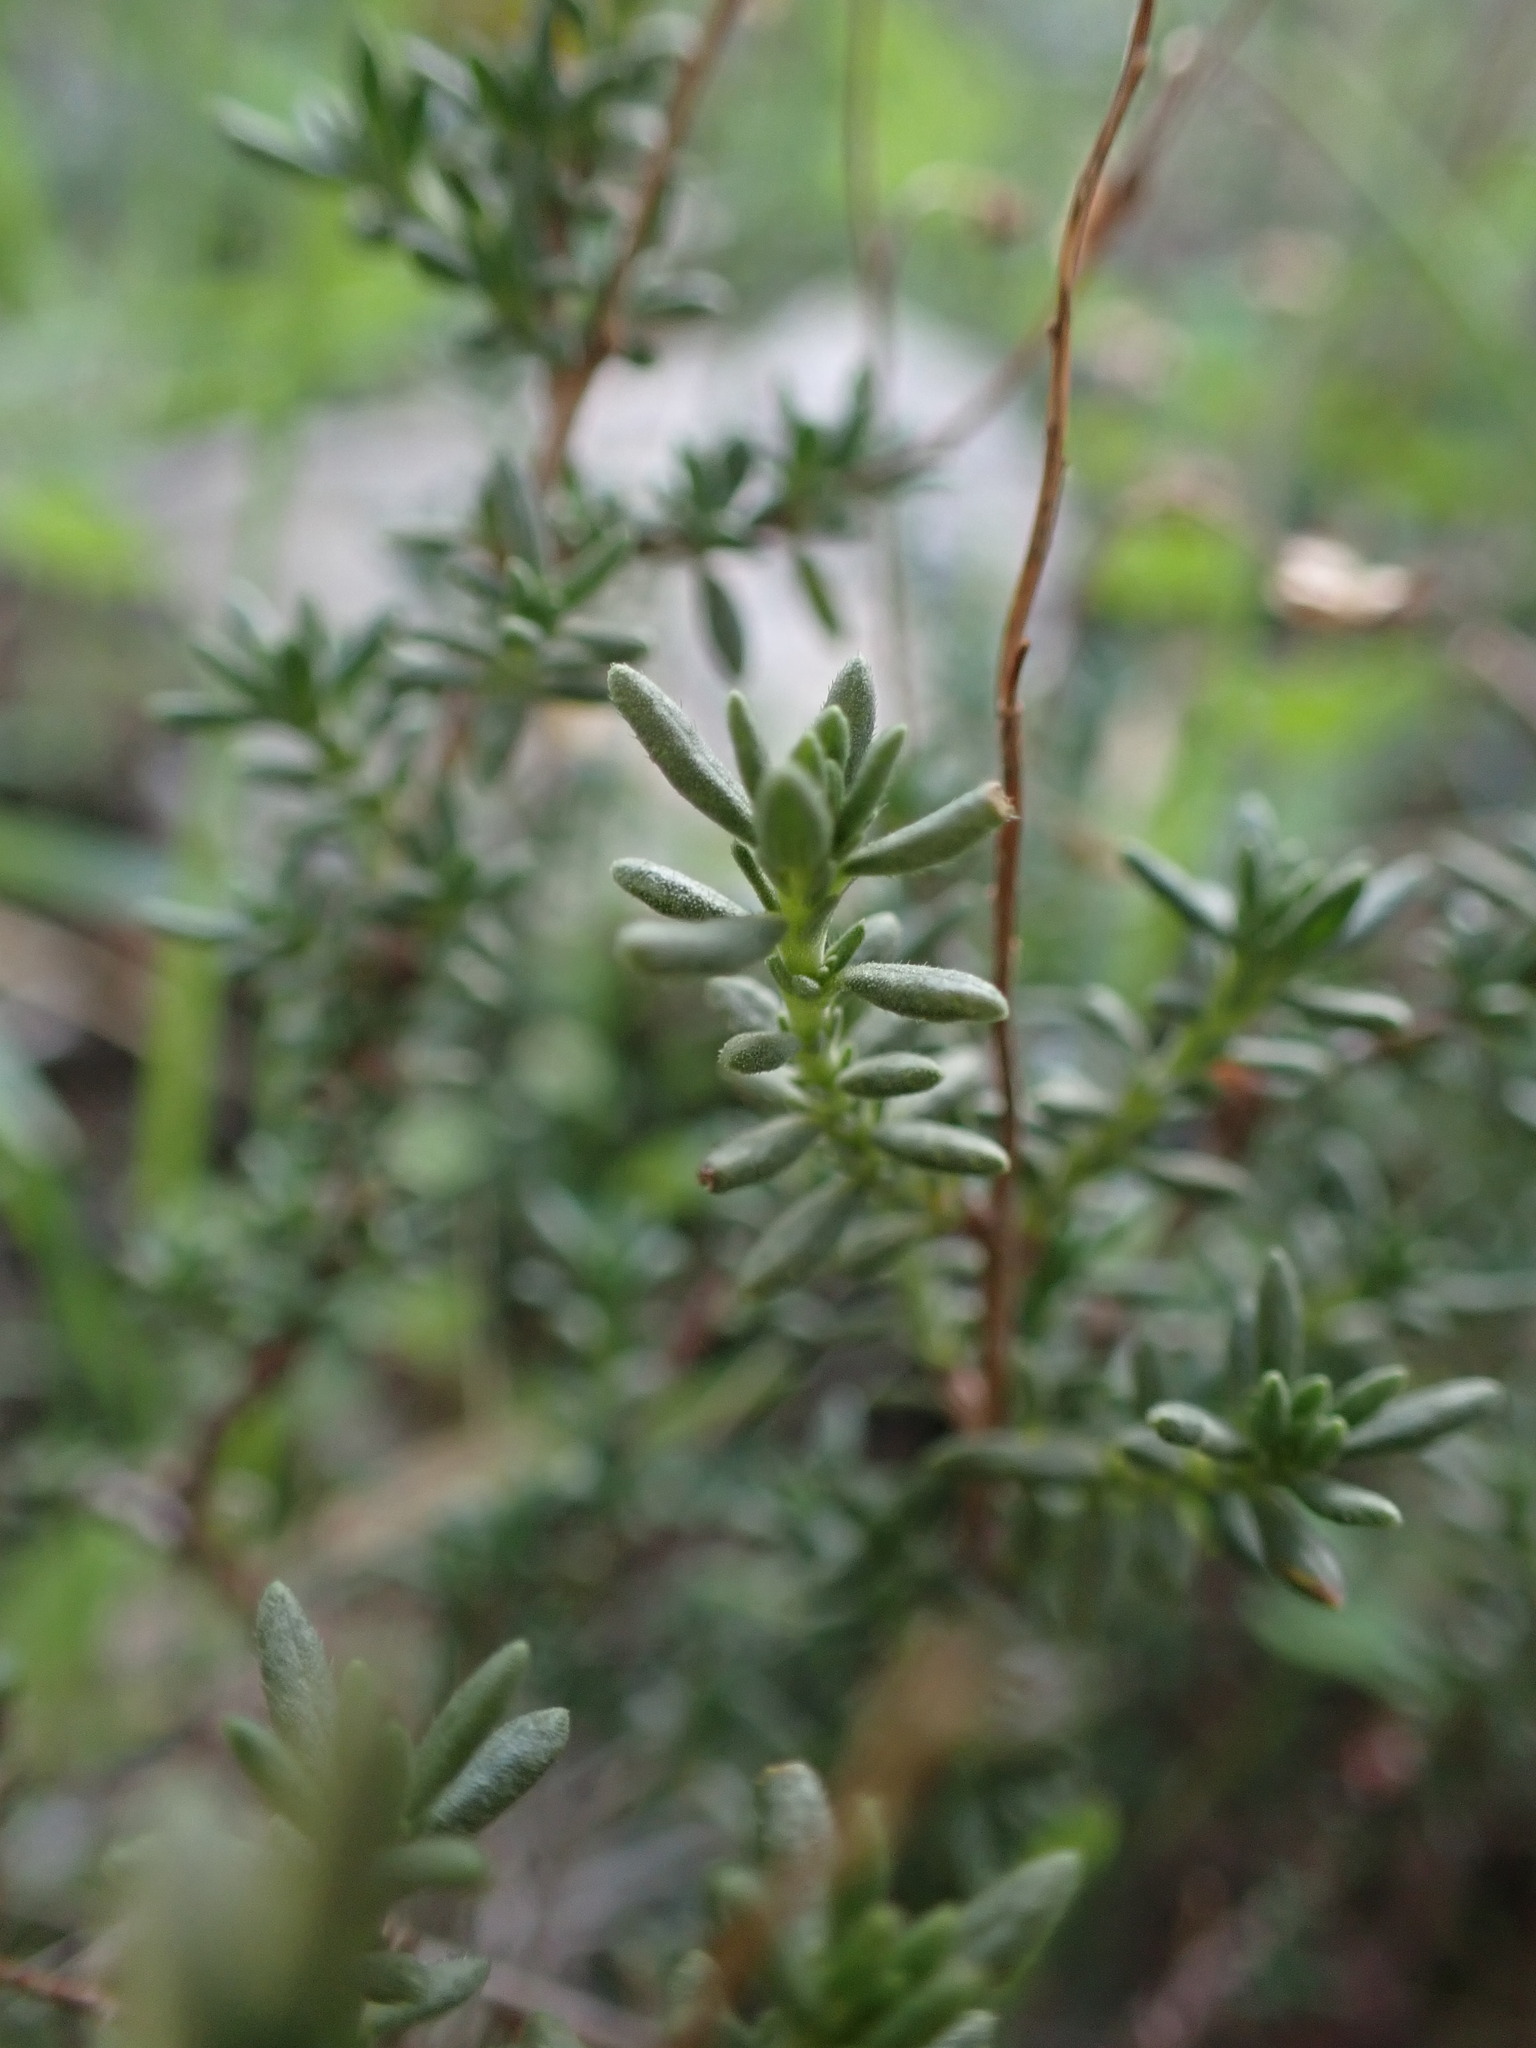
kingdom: Plantae
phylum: Tracheophyta
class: Magnoliopsida
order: Malvales
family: Cistaceae
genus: Fumana
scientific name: Fumana thymifolia
